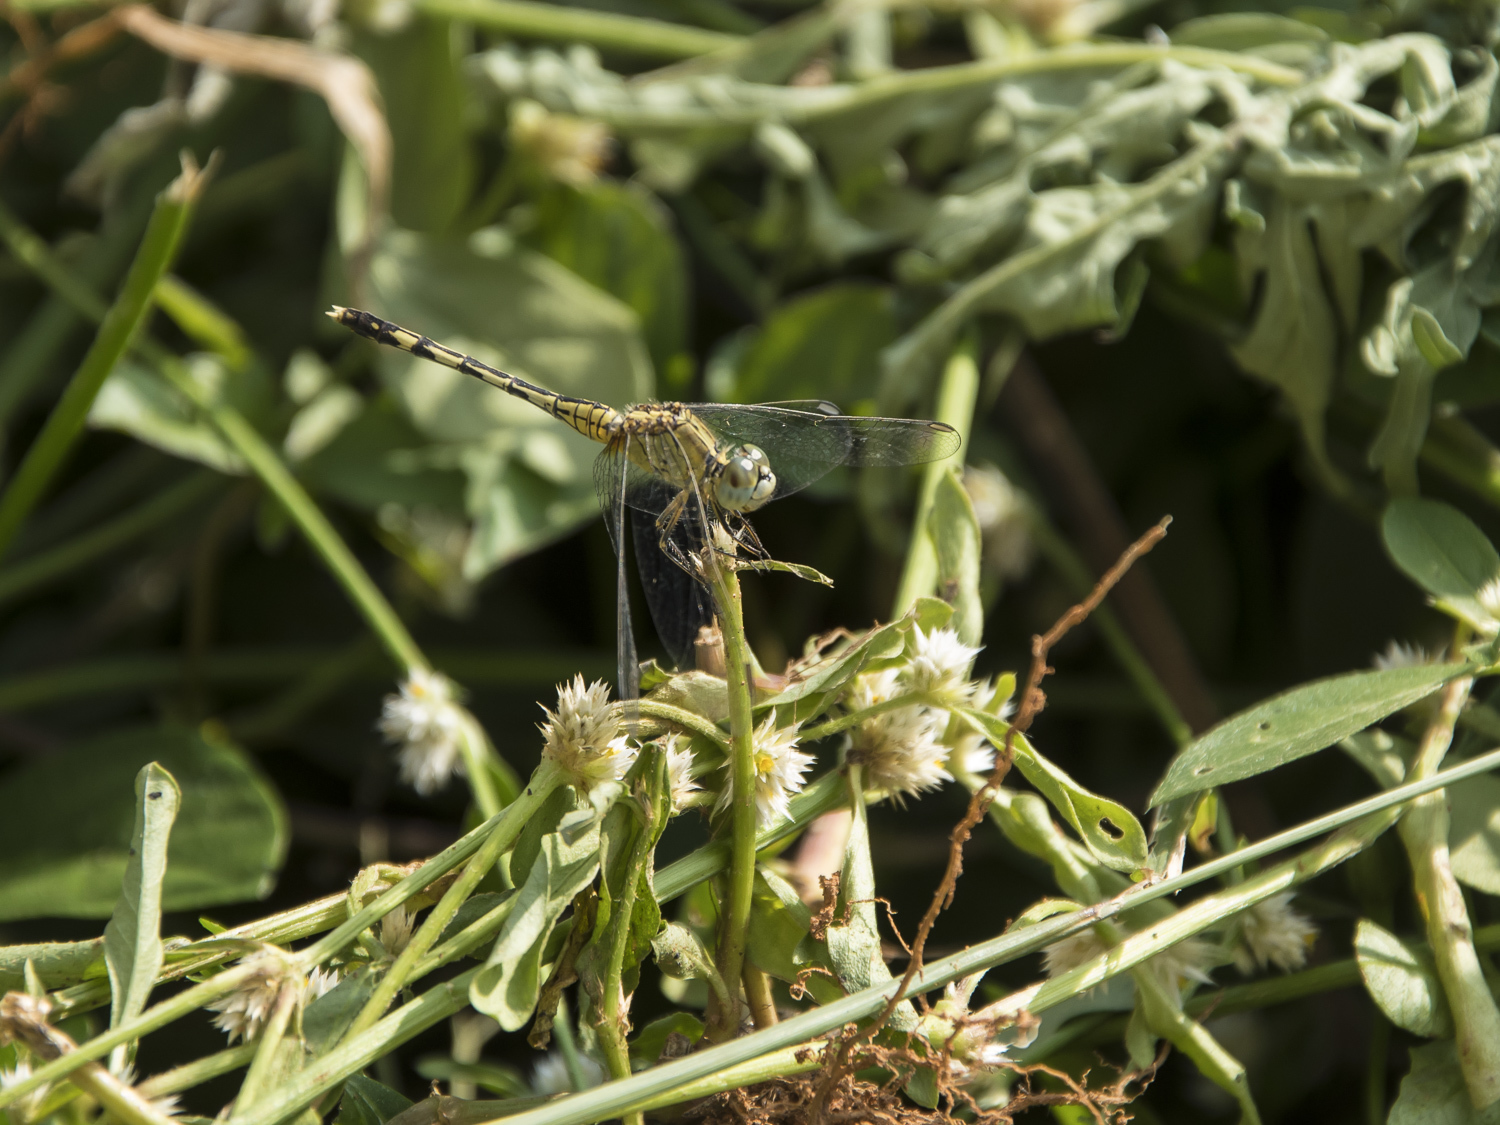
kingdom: Animalia
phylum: Arthropoda
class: Insecta
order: Odonata
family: Libellulidae
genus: Diplacodes
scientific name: Diplacodes trivialis
